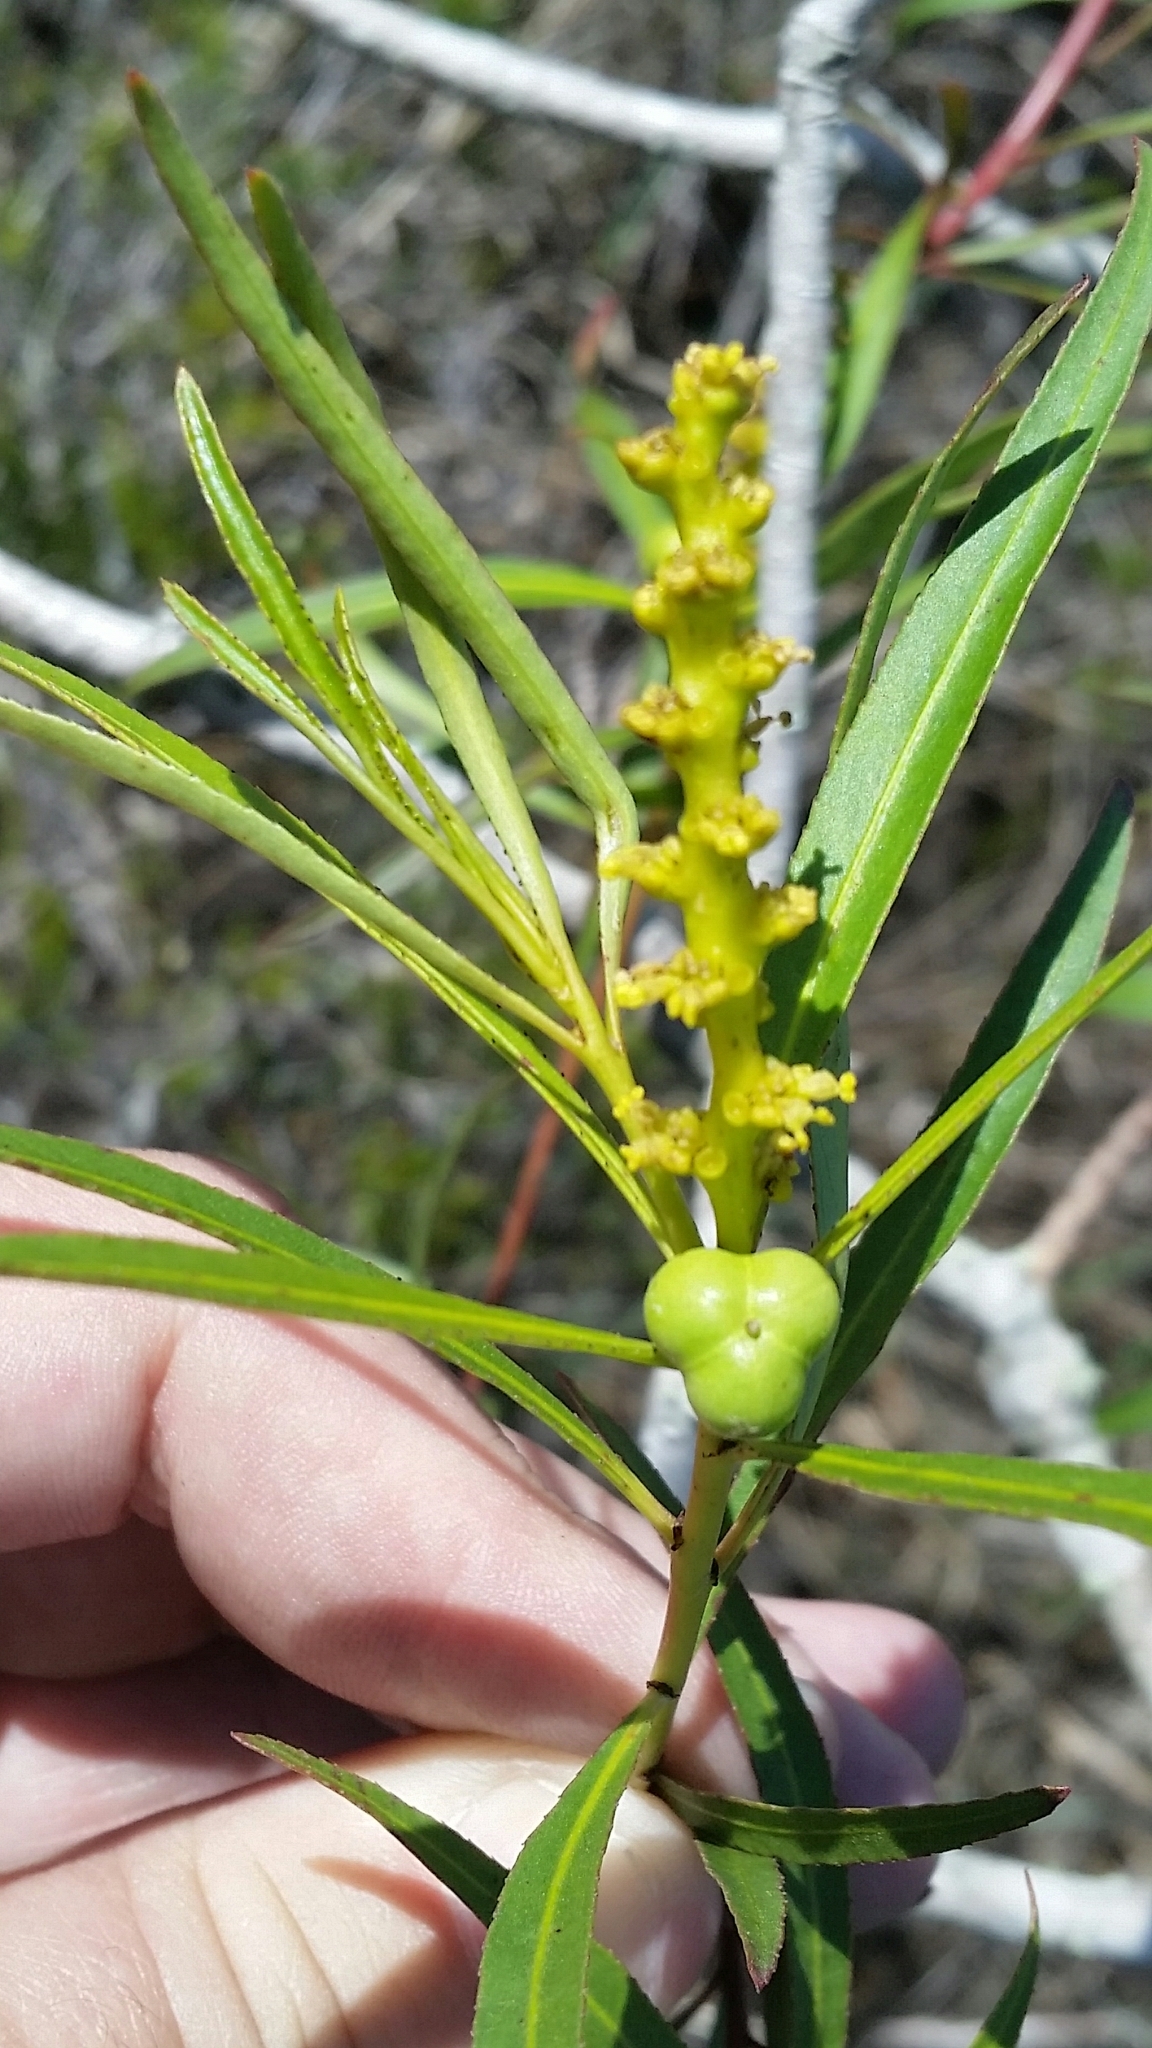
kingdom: Plantae
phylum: Tracheophyta
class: Magnoliopsida
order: Malpighiales
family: Euphorbiaceae
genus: Stillingia
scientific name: Stillingia aquatica
